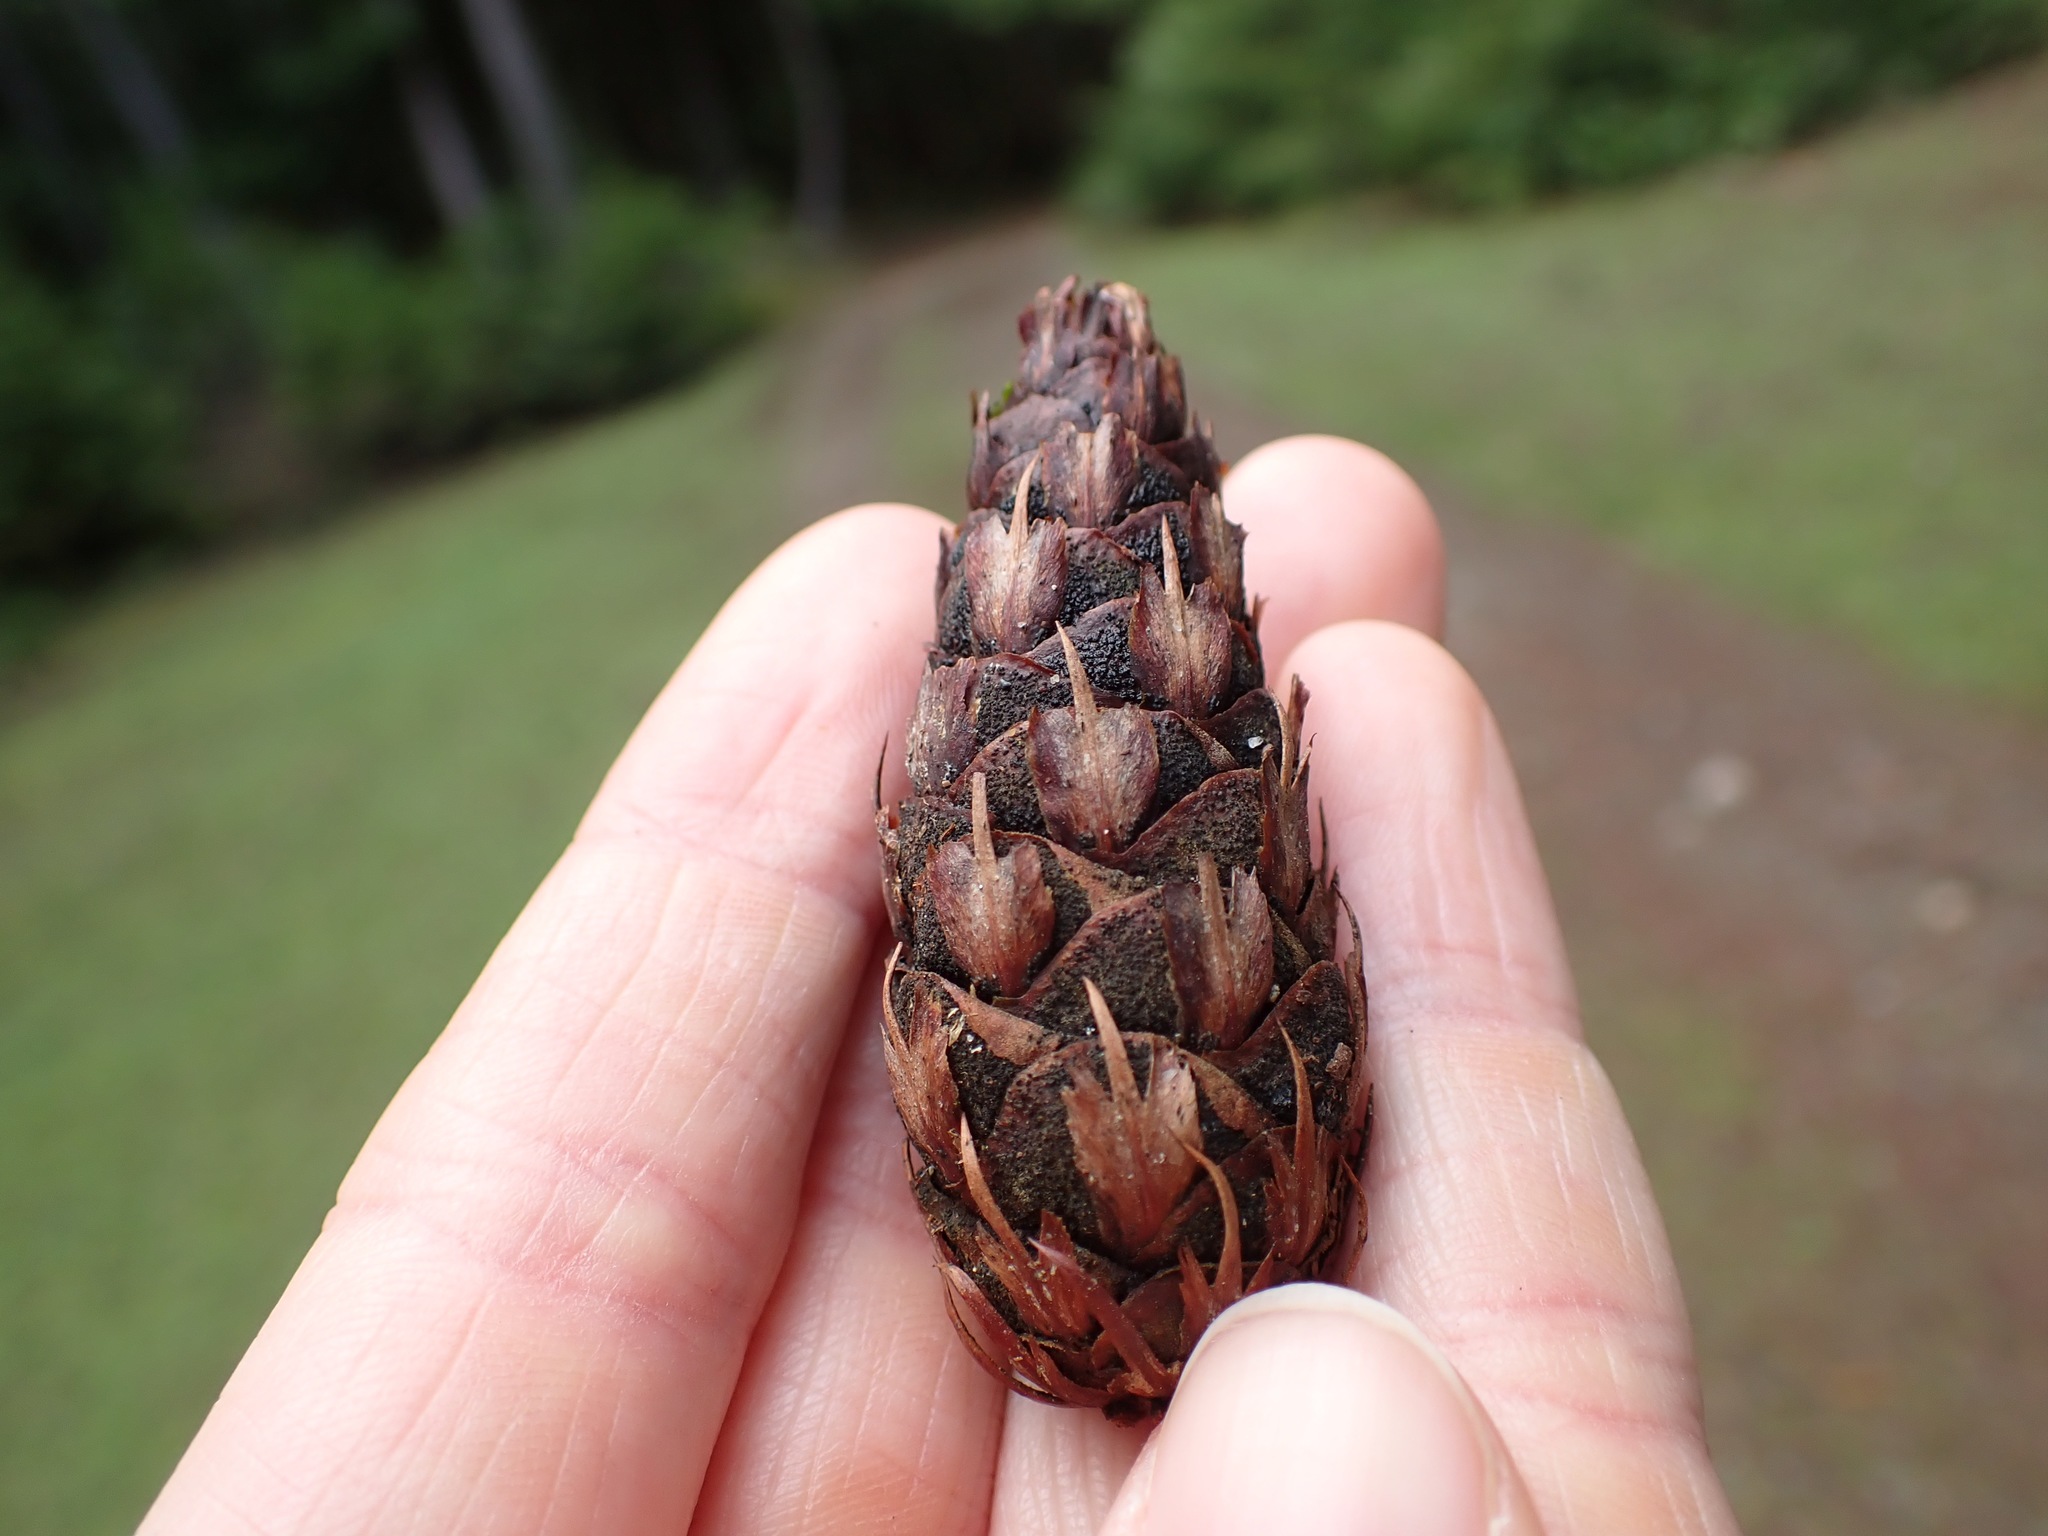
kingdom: Plantae
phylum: Tracheophyta
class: Pinopsida
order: Pinales
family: Pinaceae
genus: Pseudotsuga
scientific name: Pseudotsuga menziesii
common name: Douglas fir
